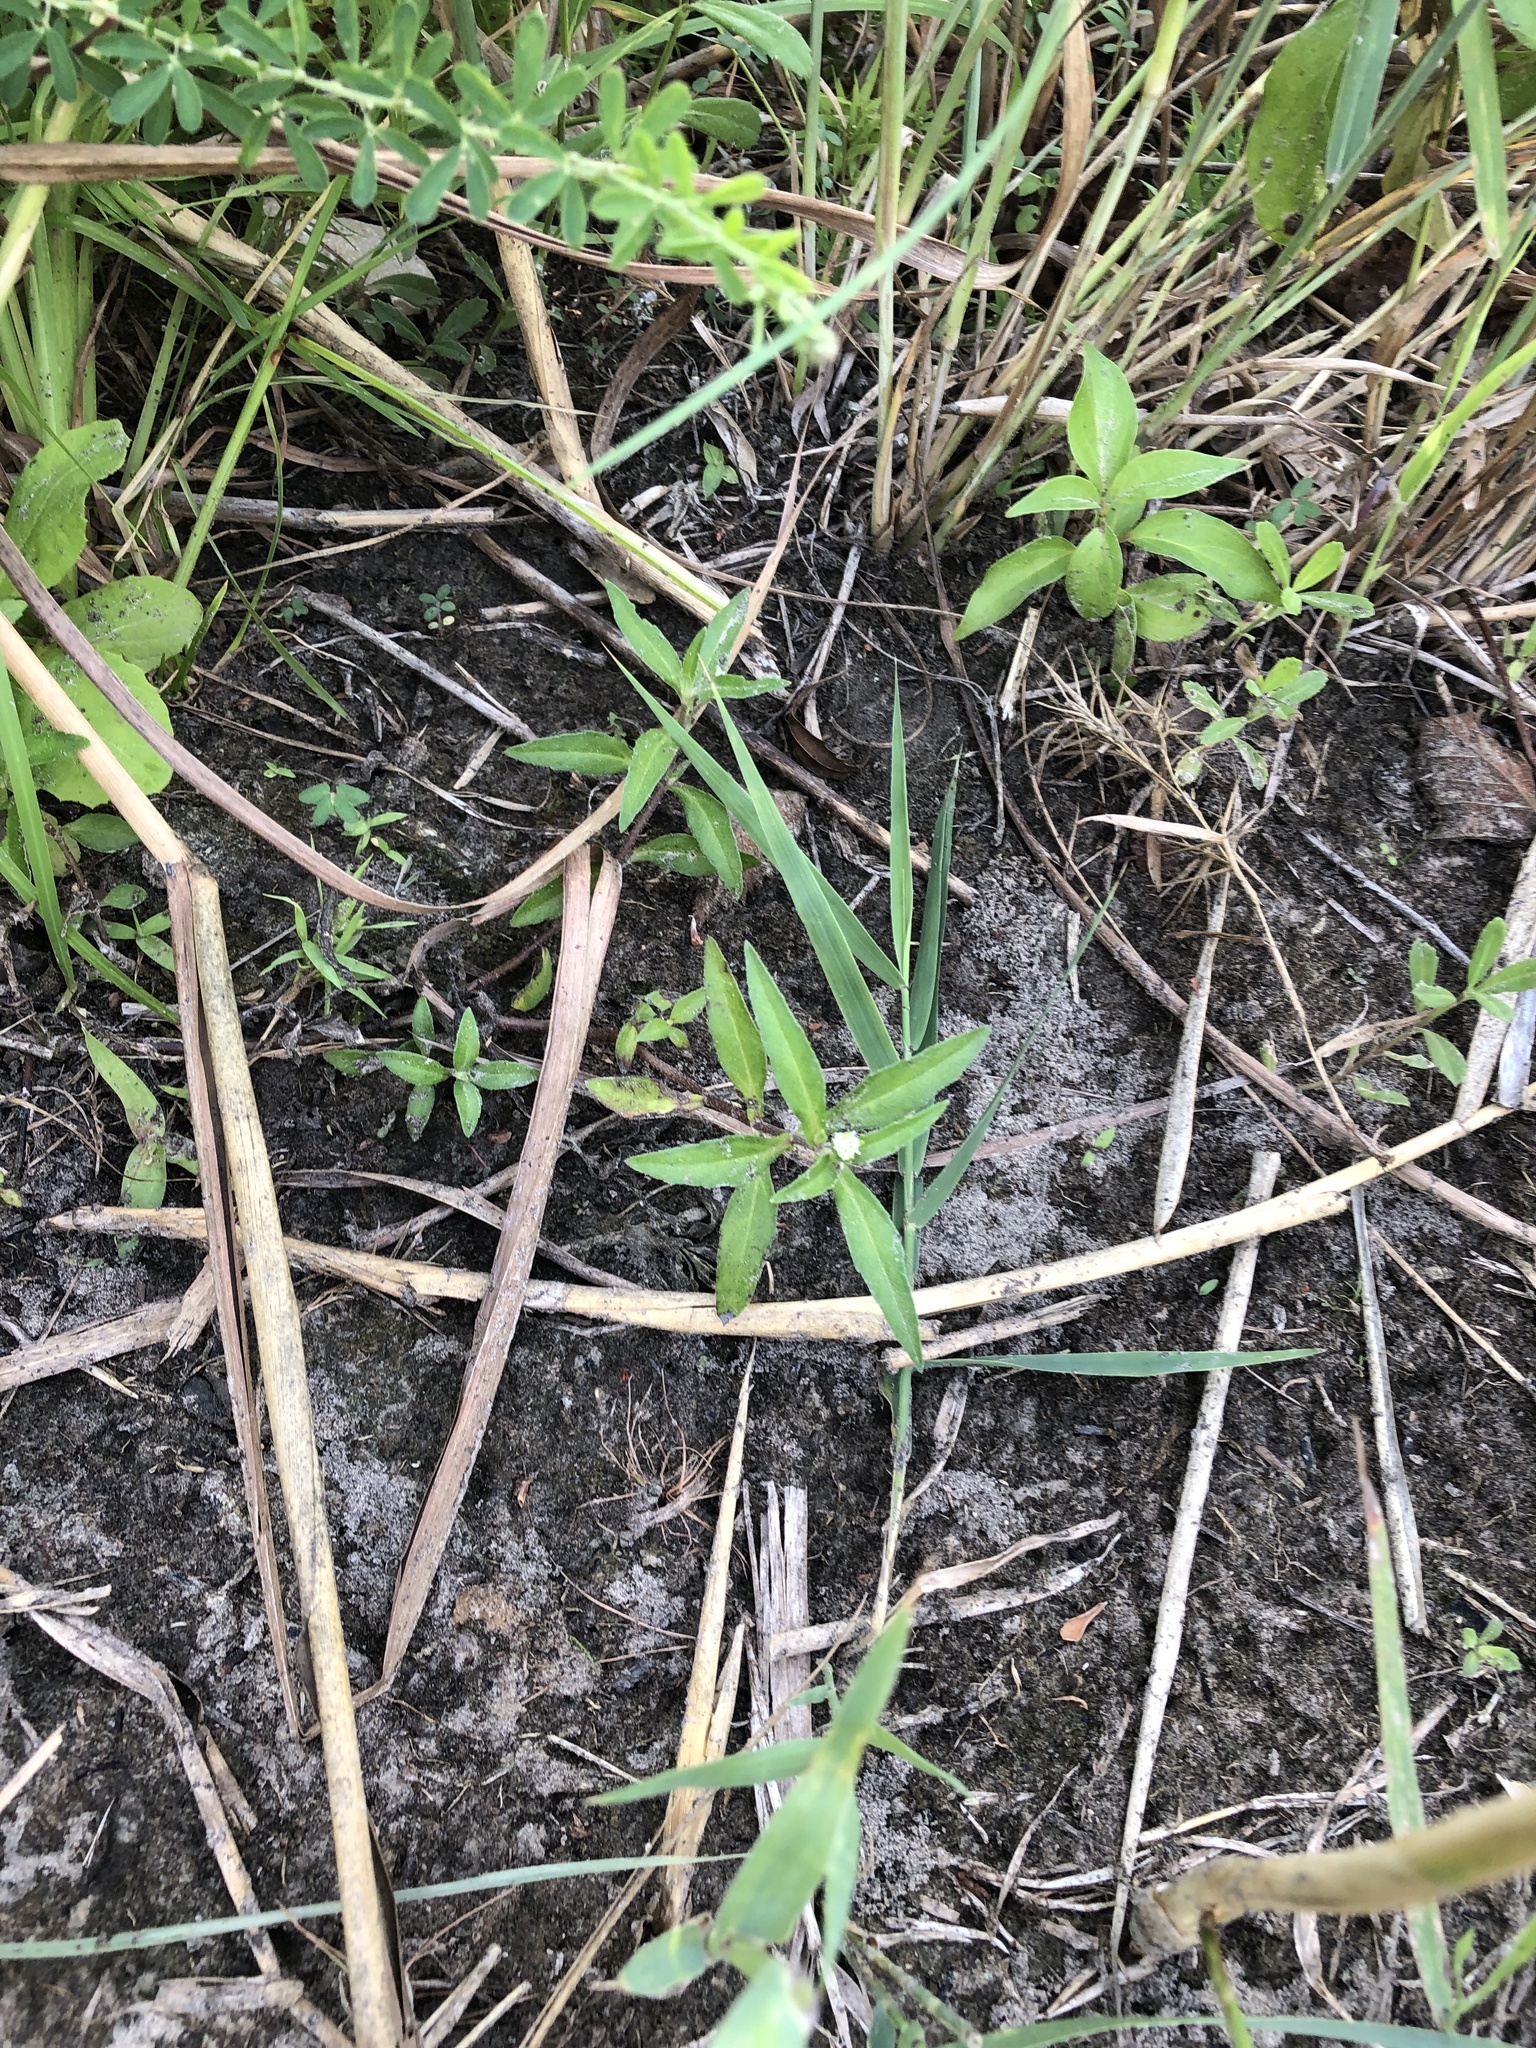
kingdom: Plantae
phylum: Tracheophyta
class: Magnoliopsida
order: Asterales
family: Asteraceae
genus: Eclipta
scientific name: Eclipta prostrata
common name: False daisy
